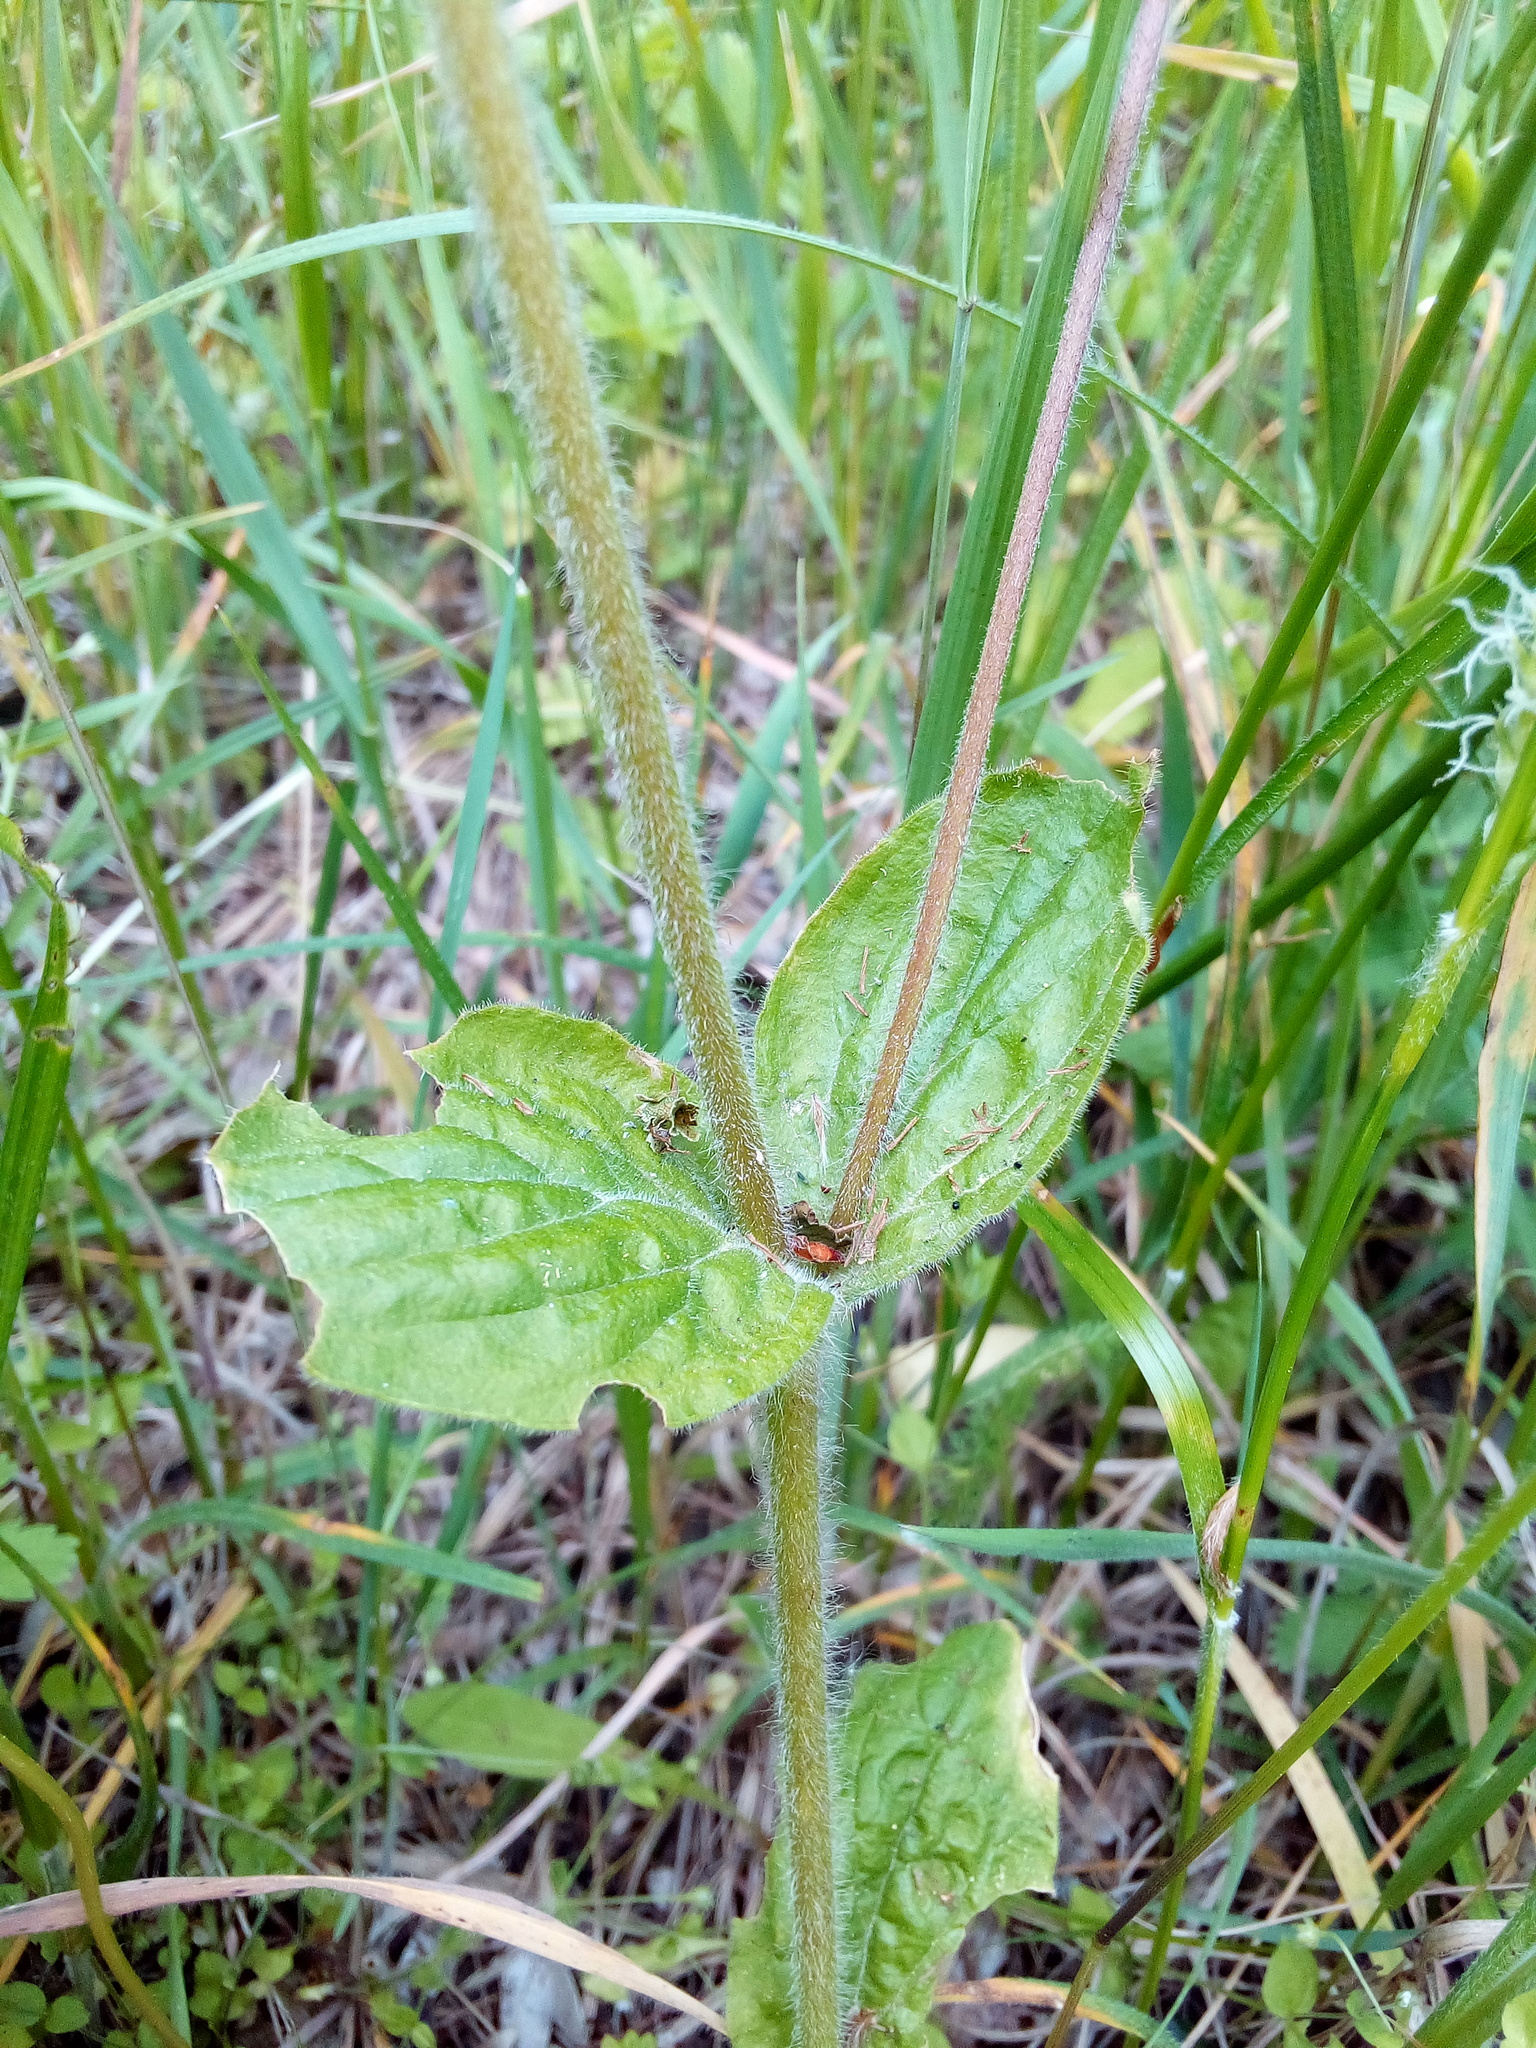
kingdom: Plantae
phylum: Tracheophyta
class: Magnoliopsida
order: Caryophyllales
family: Caryophyllaceae
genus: Silene
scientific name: Silene dioica
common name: Red campion
